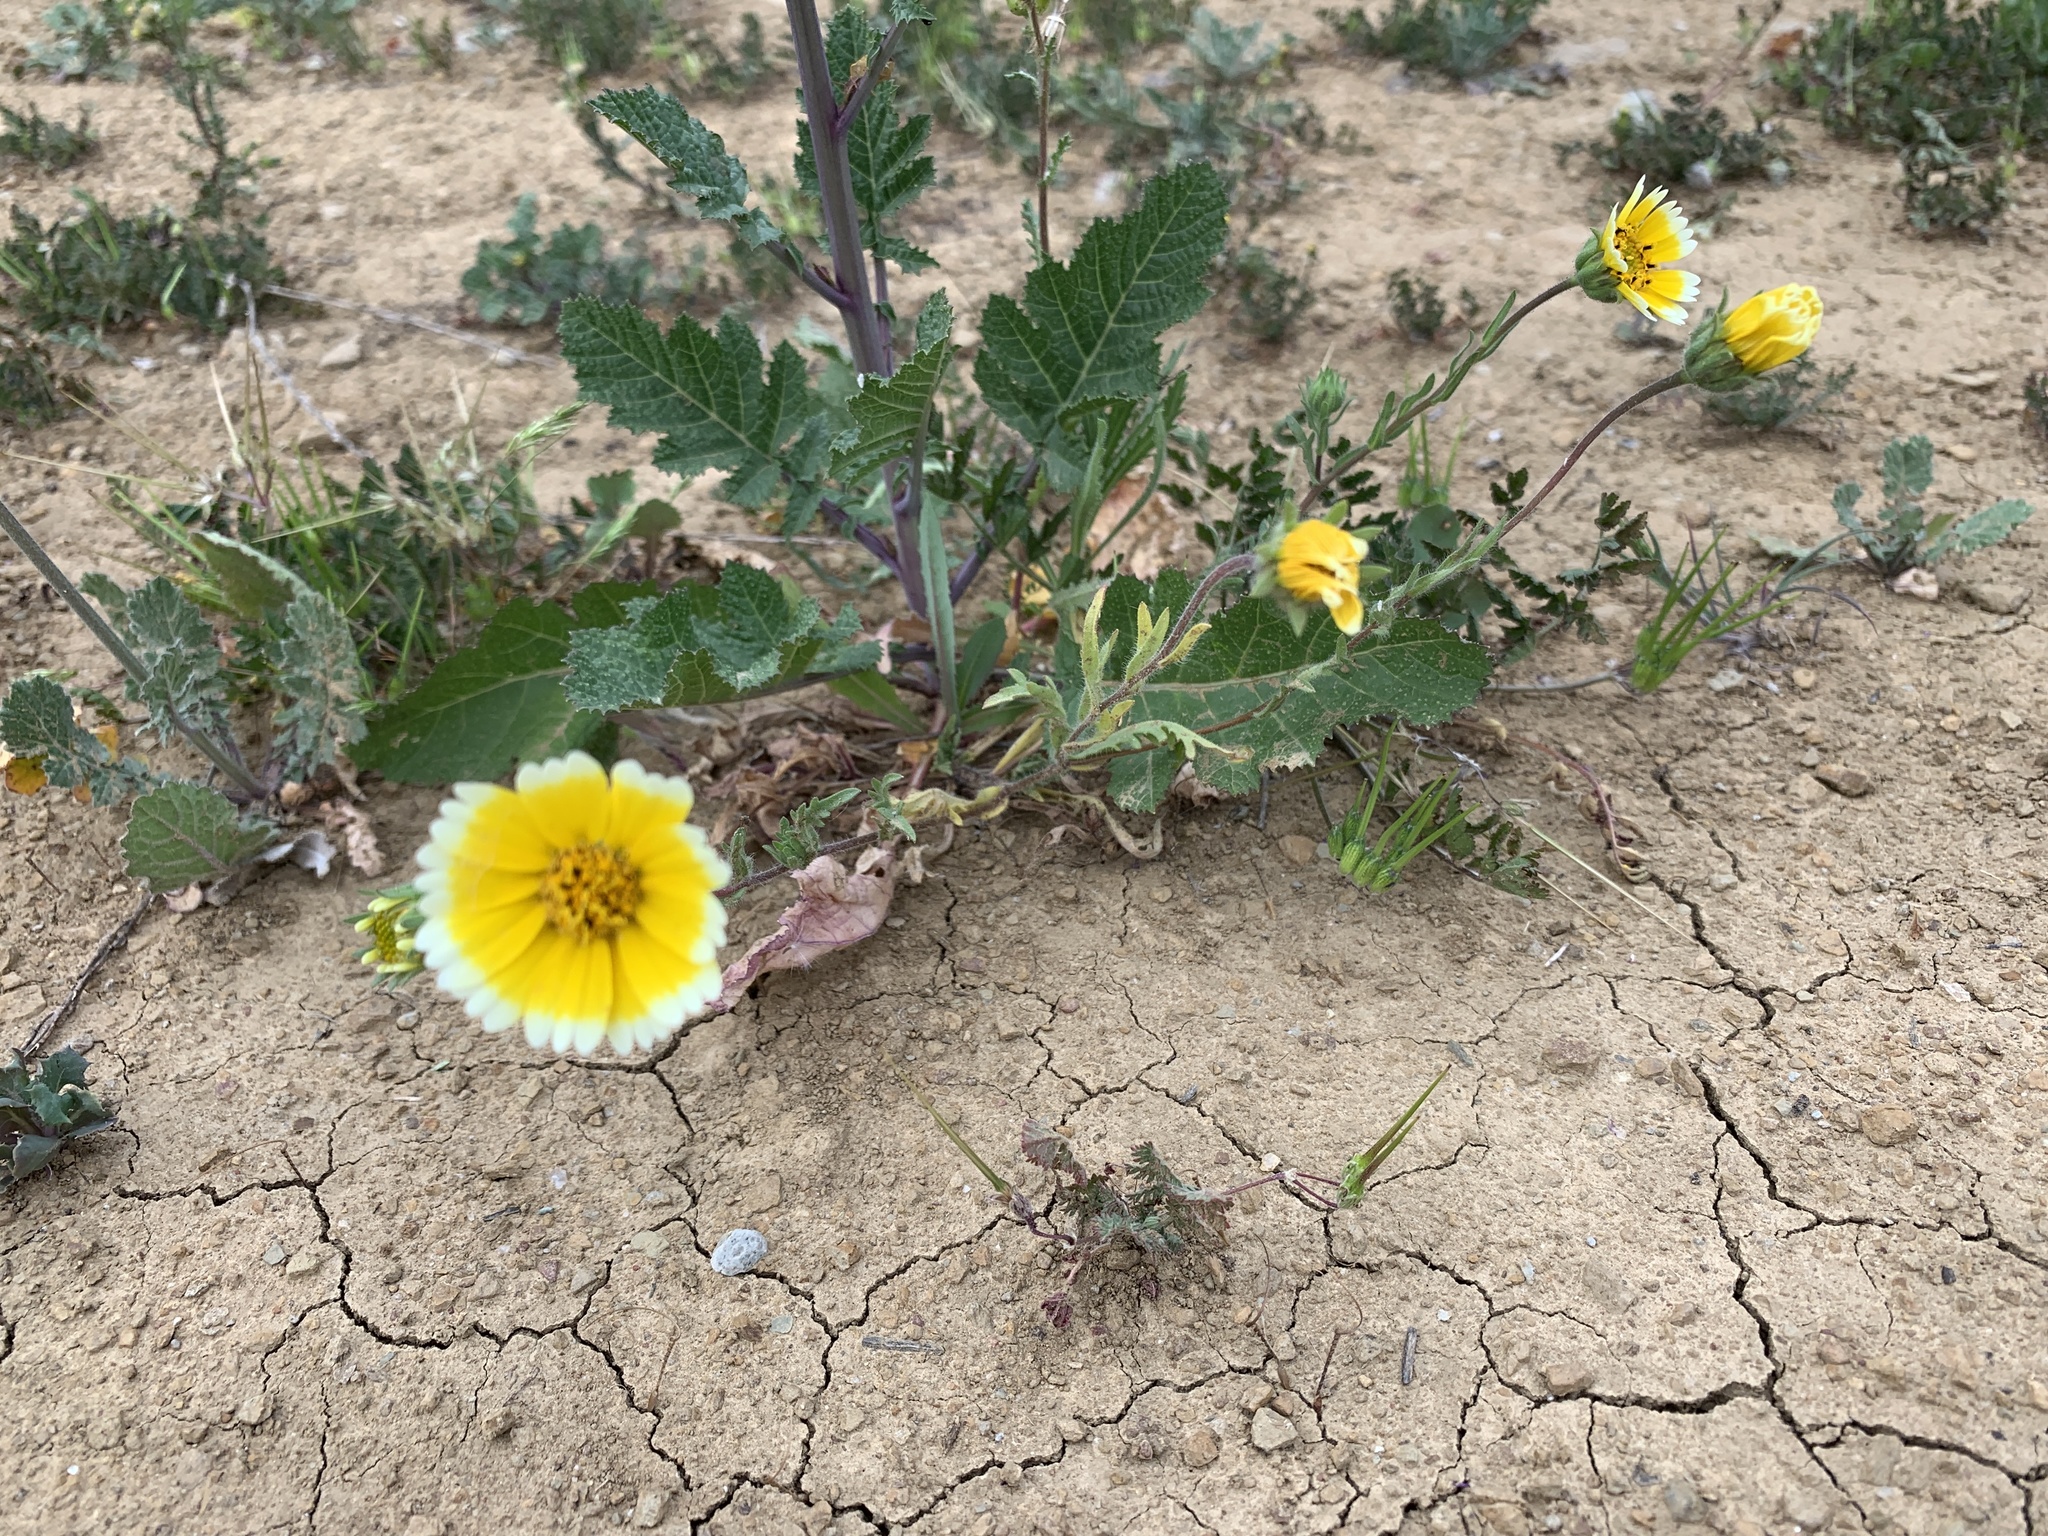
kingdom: Plantae
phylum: Tracheophyta
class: Magnoliopsida
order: Asterales
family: Asteraceae
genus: Layia
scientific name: Layia platyglossa
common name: Tidy-tips
